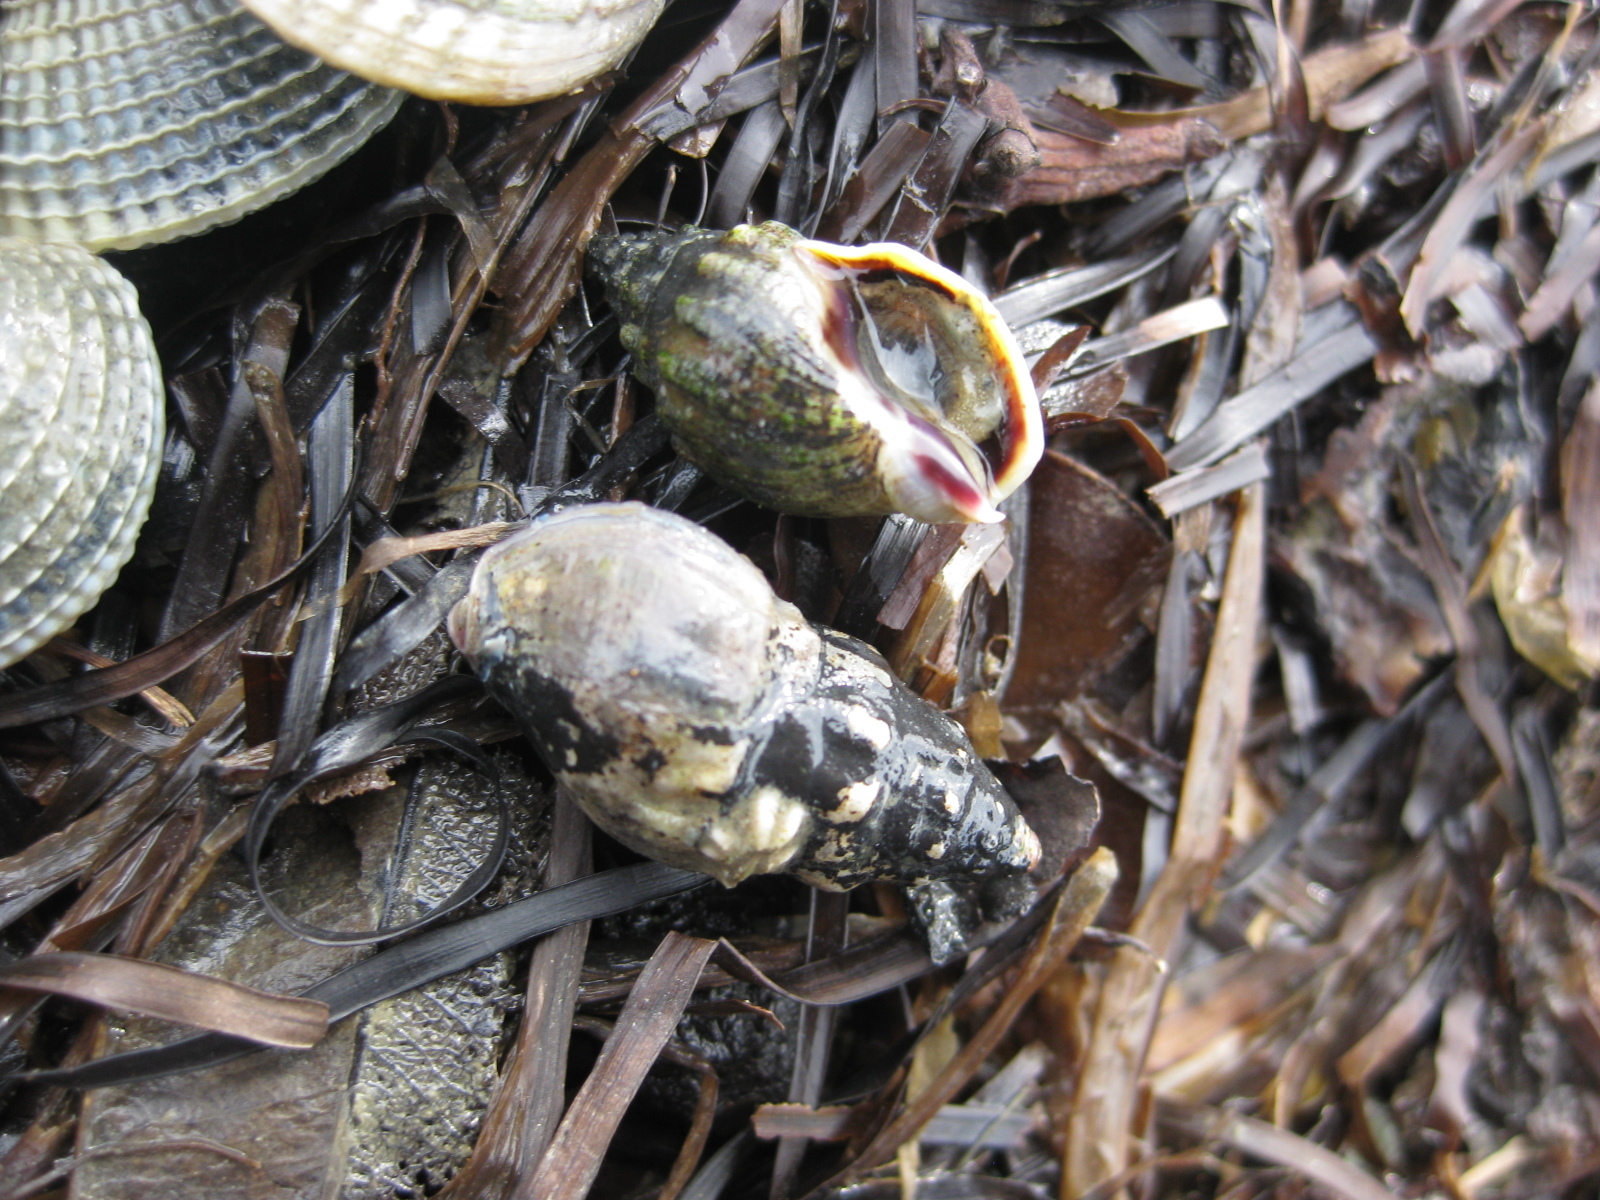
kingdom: Animalia
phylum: Mollusca
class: Gastropoda
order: Neogastropoda
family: Cominellidae
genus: Cominella
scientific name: Cominella glandiformis
